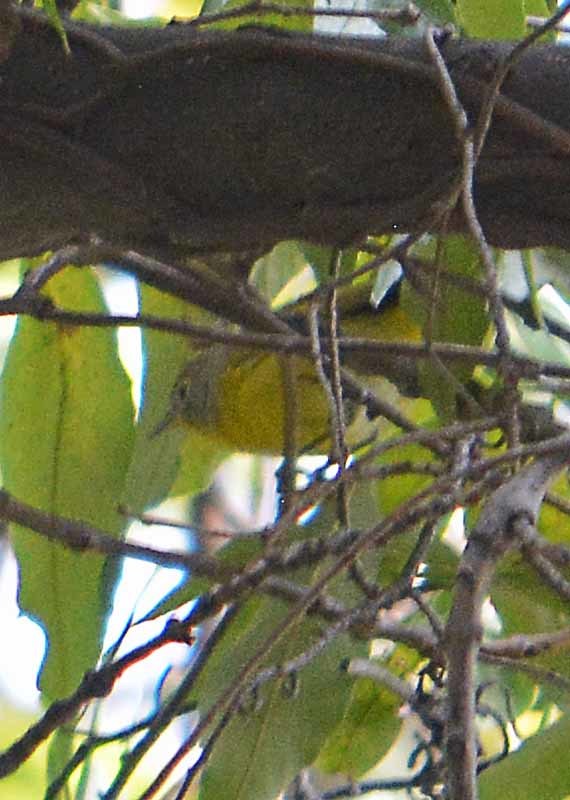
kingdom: Animalia
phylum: Chordata
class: Aves
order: Passeriformes
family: Parulidae
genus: Leiothlypis
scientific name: Leiothlypis ruficapilla
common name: Nashville warbler
